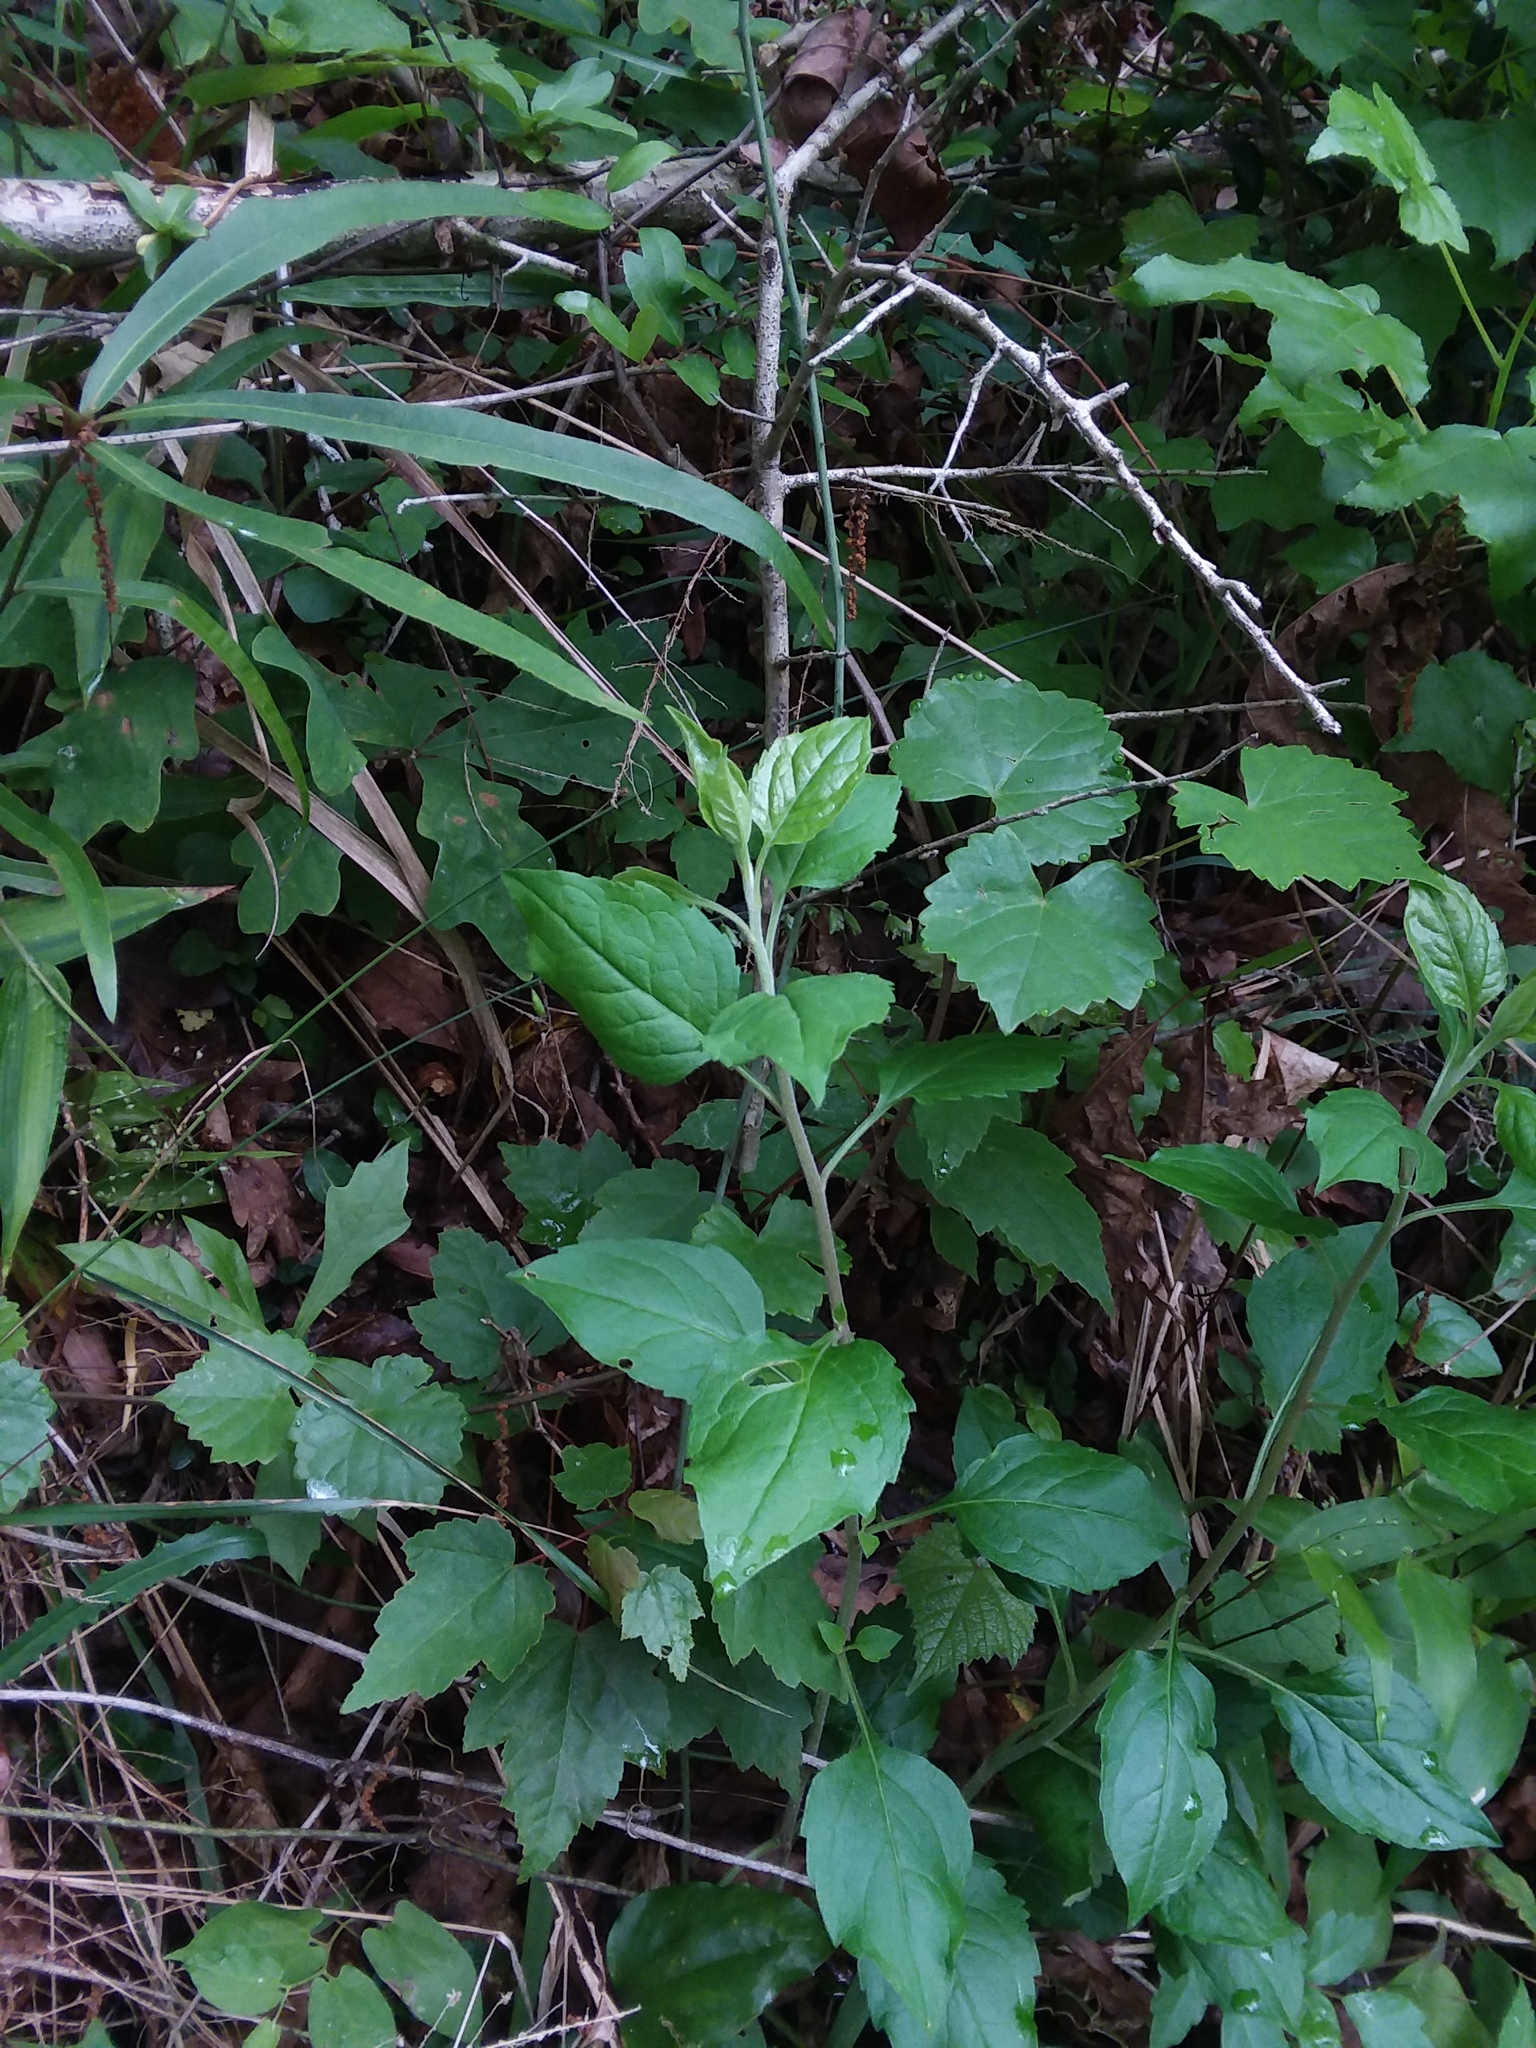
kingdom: Plantae
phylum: Tracheophyta
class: Magnoliopsida
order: Asterales
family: Asteraceae
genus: Solidago
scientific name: Solidago discoidea
